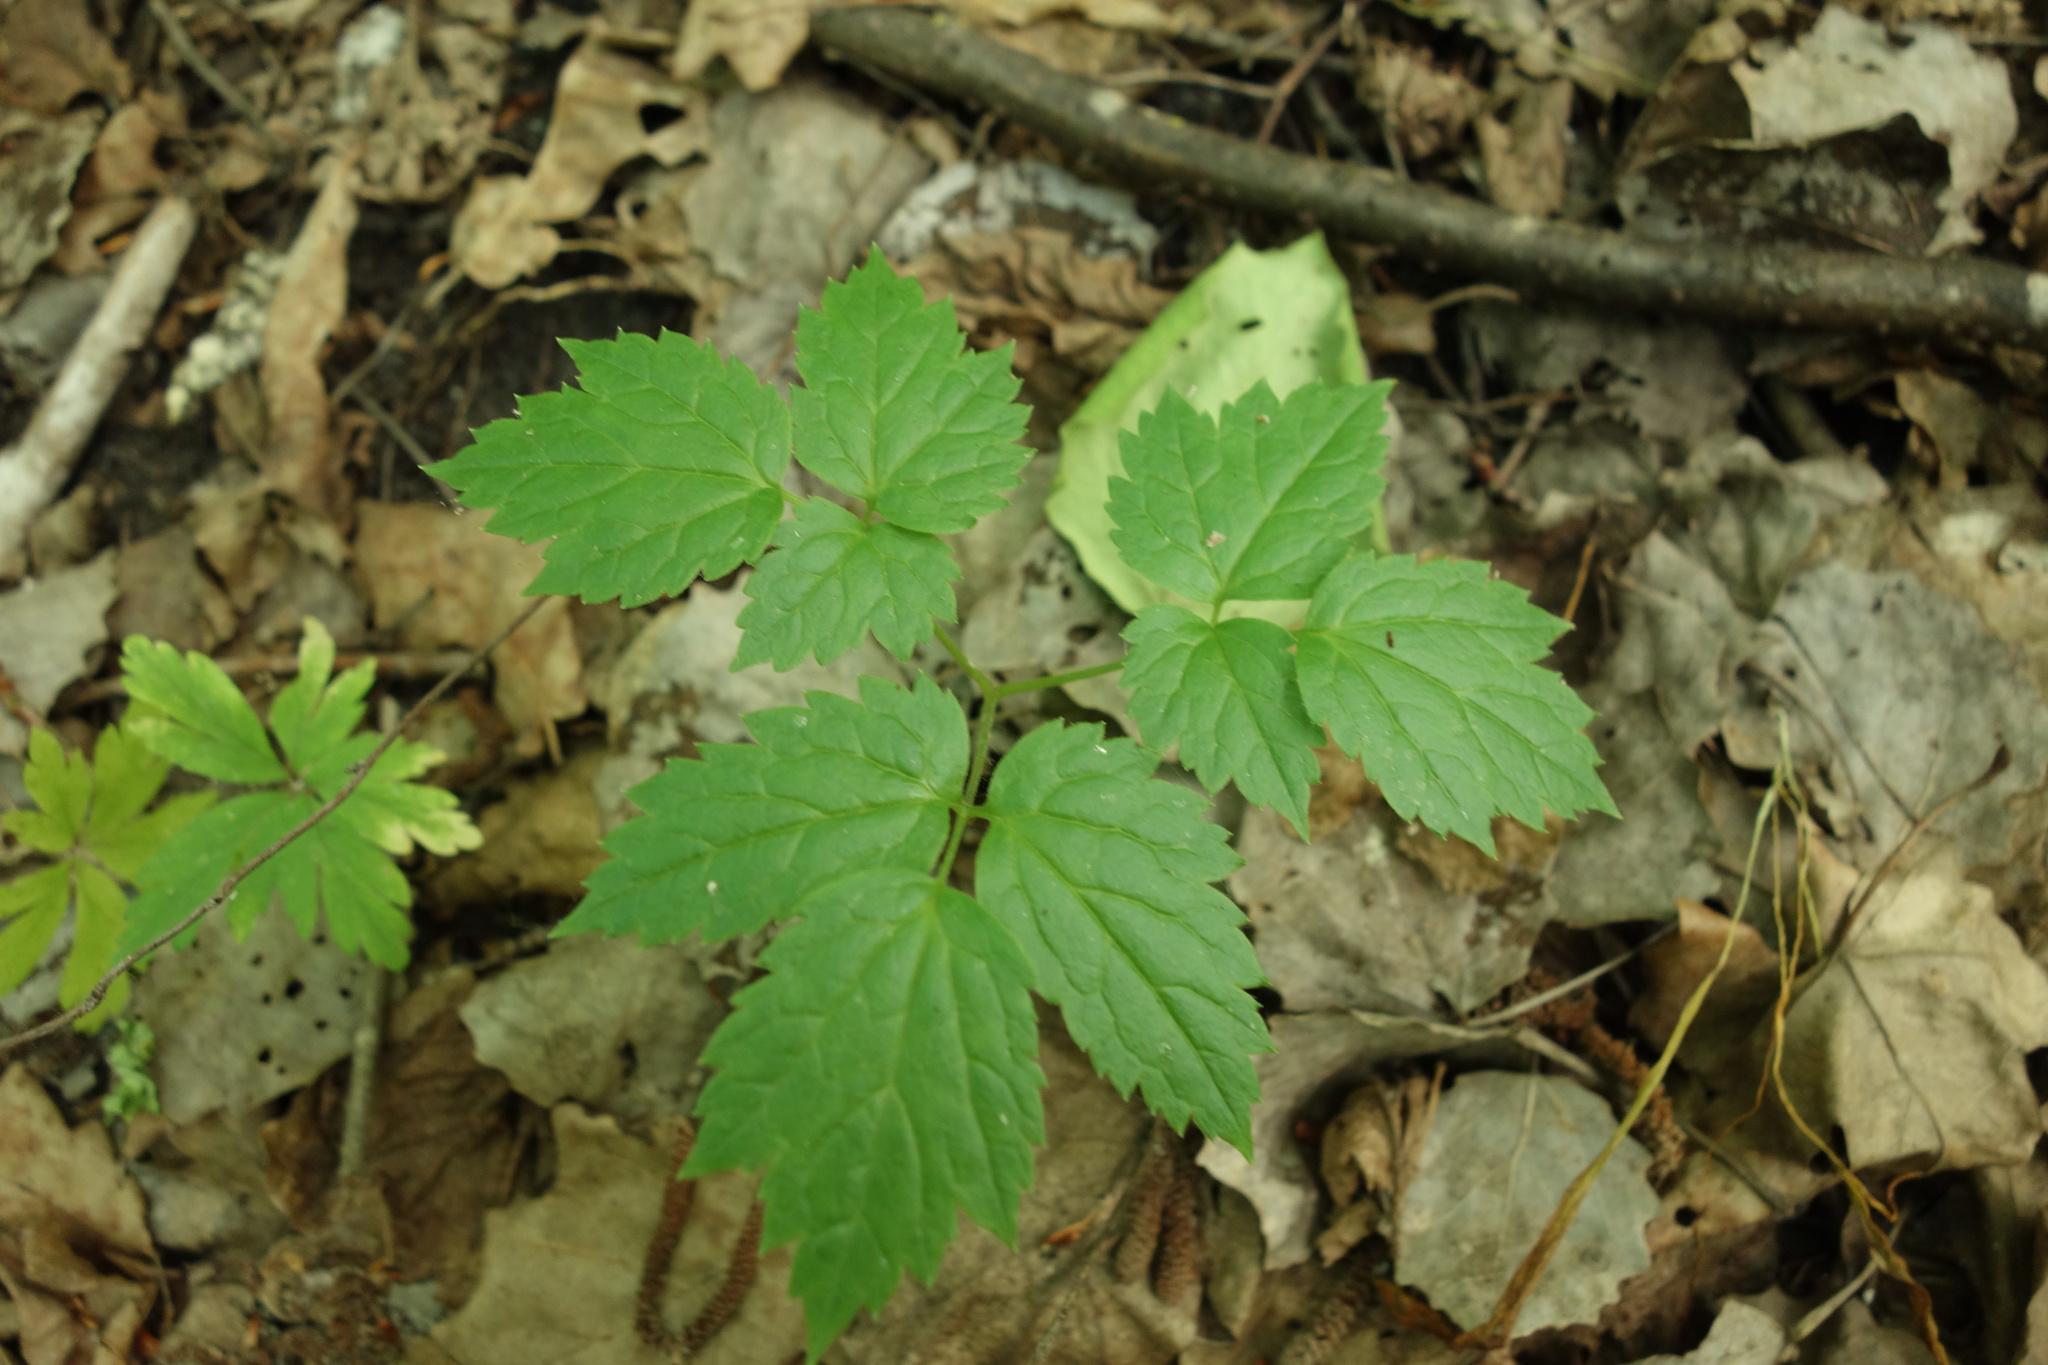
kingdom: Plantae
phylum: Tracheophyta
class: Magnoliopsida
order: Ranunculales
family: Ranunculaceae
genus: Actaea
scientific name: Actaea spicata
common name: Baneberry
